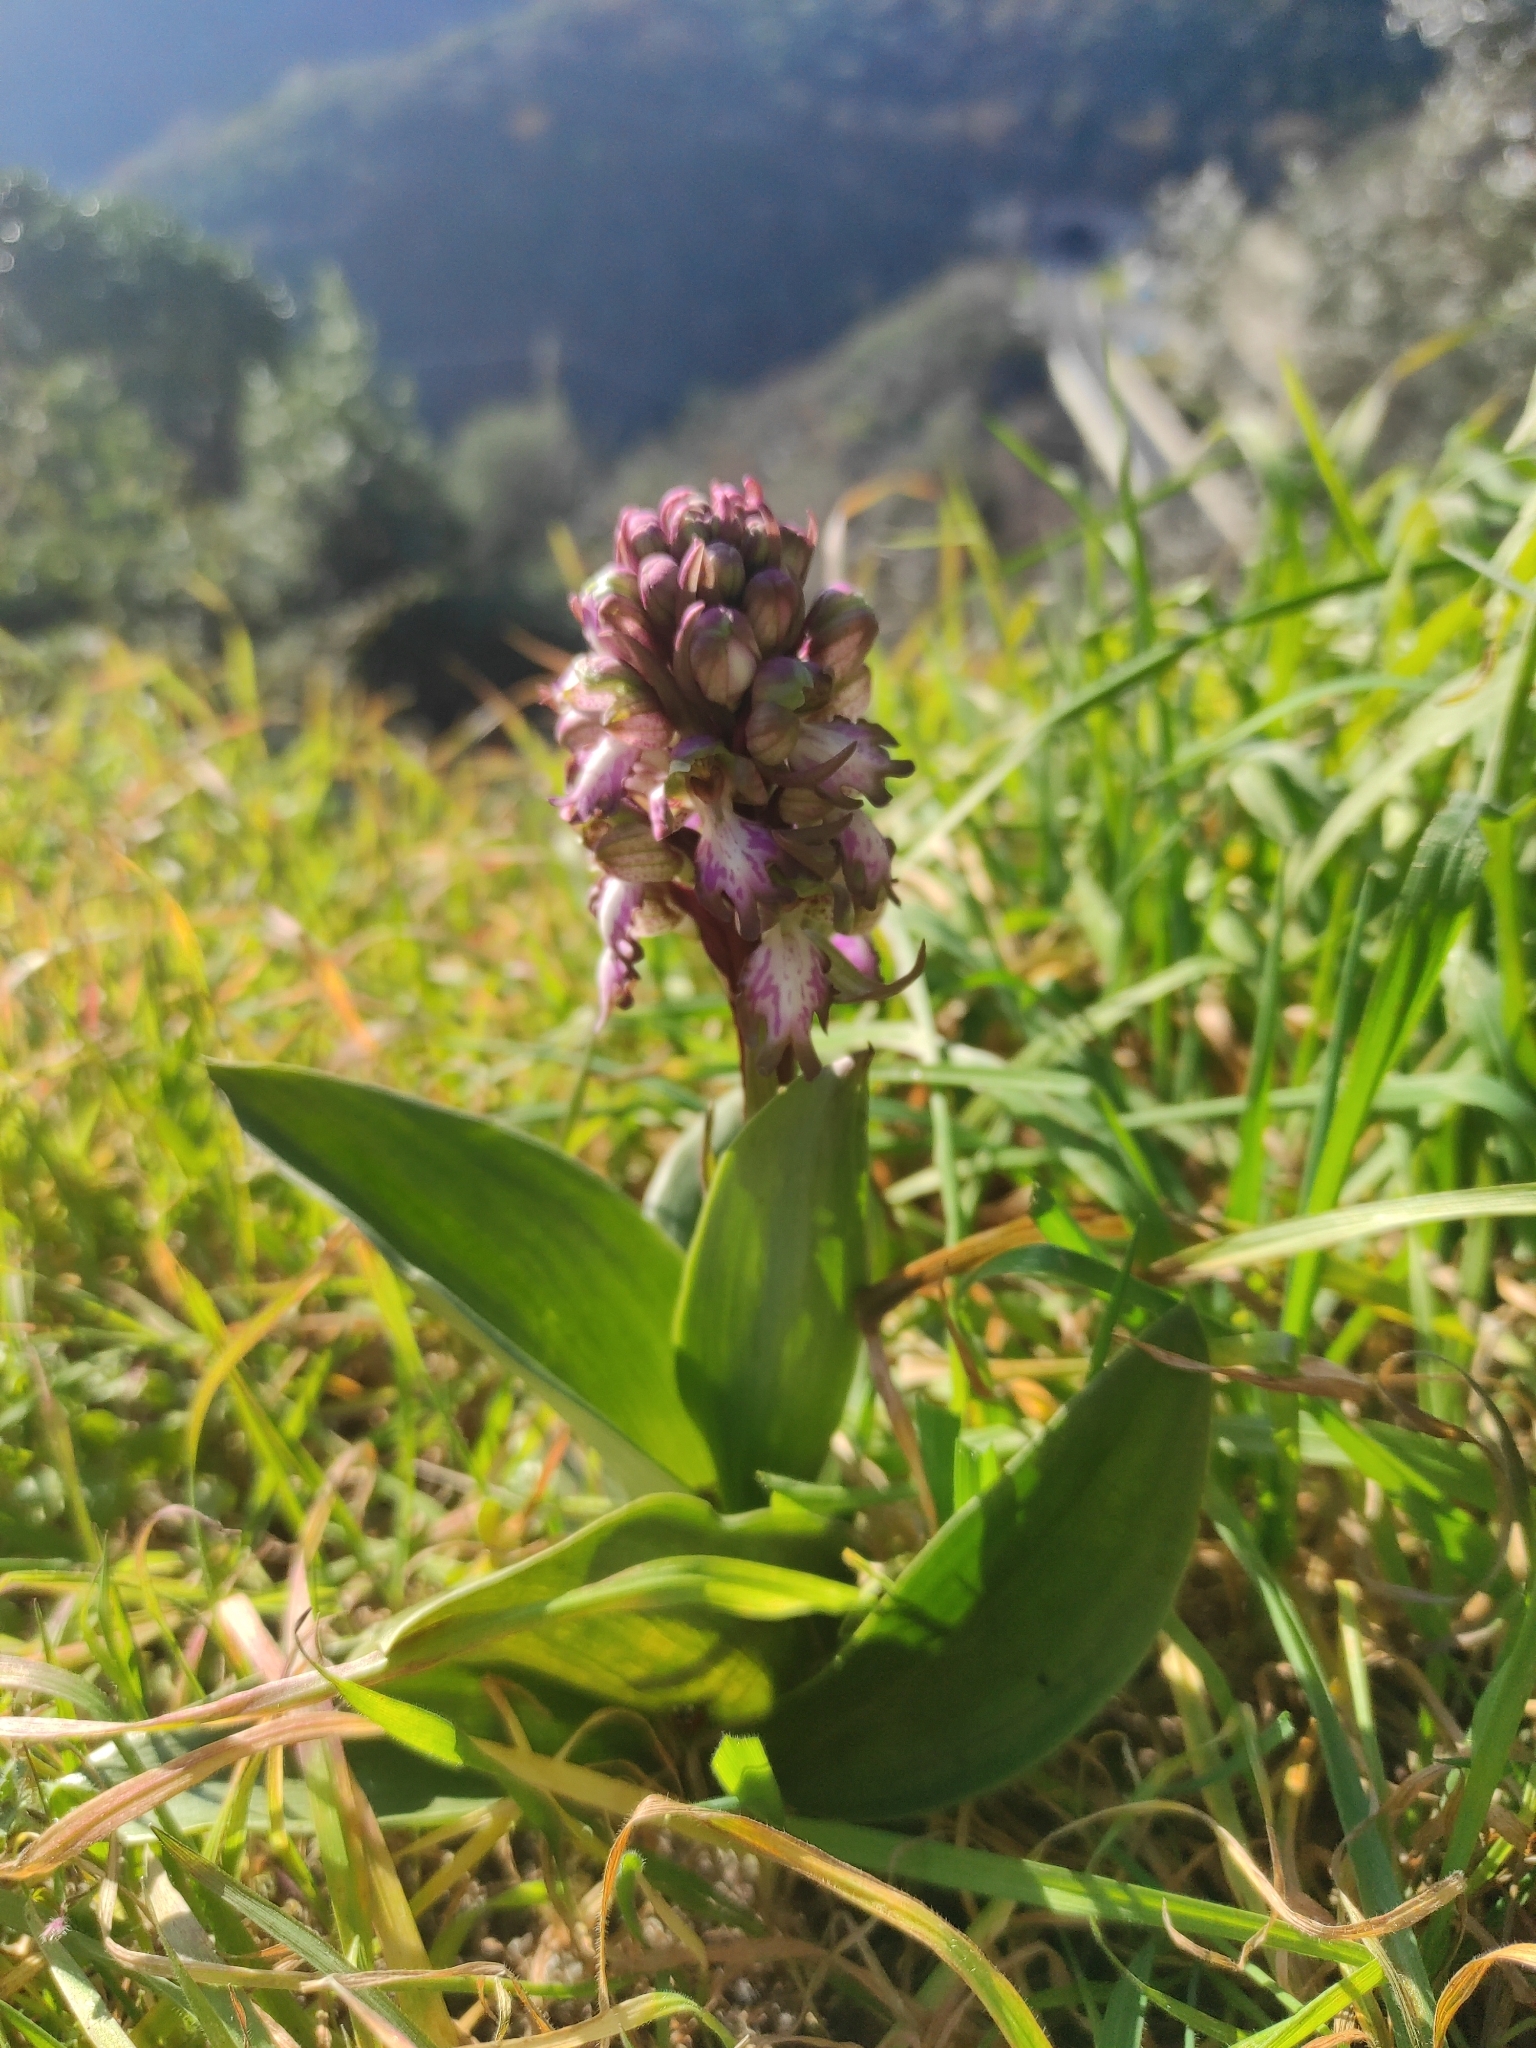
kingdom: Plantae
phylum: Tracheophyta
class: Liliopsida
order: Asparagales
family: Orchidaceae
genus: Himantoglossum
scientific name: Himantoglossum robertianum
